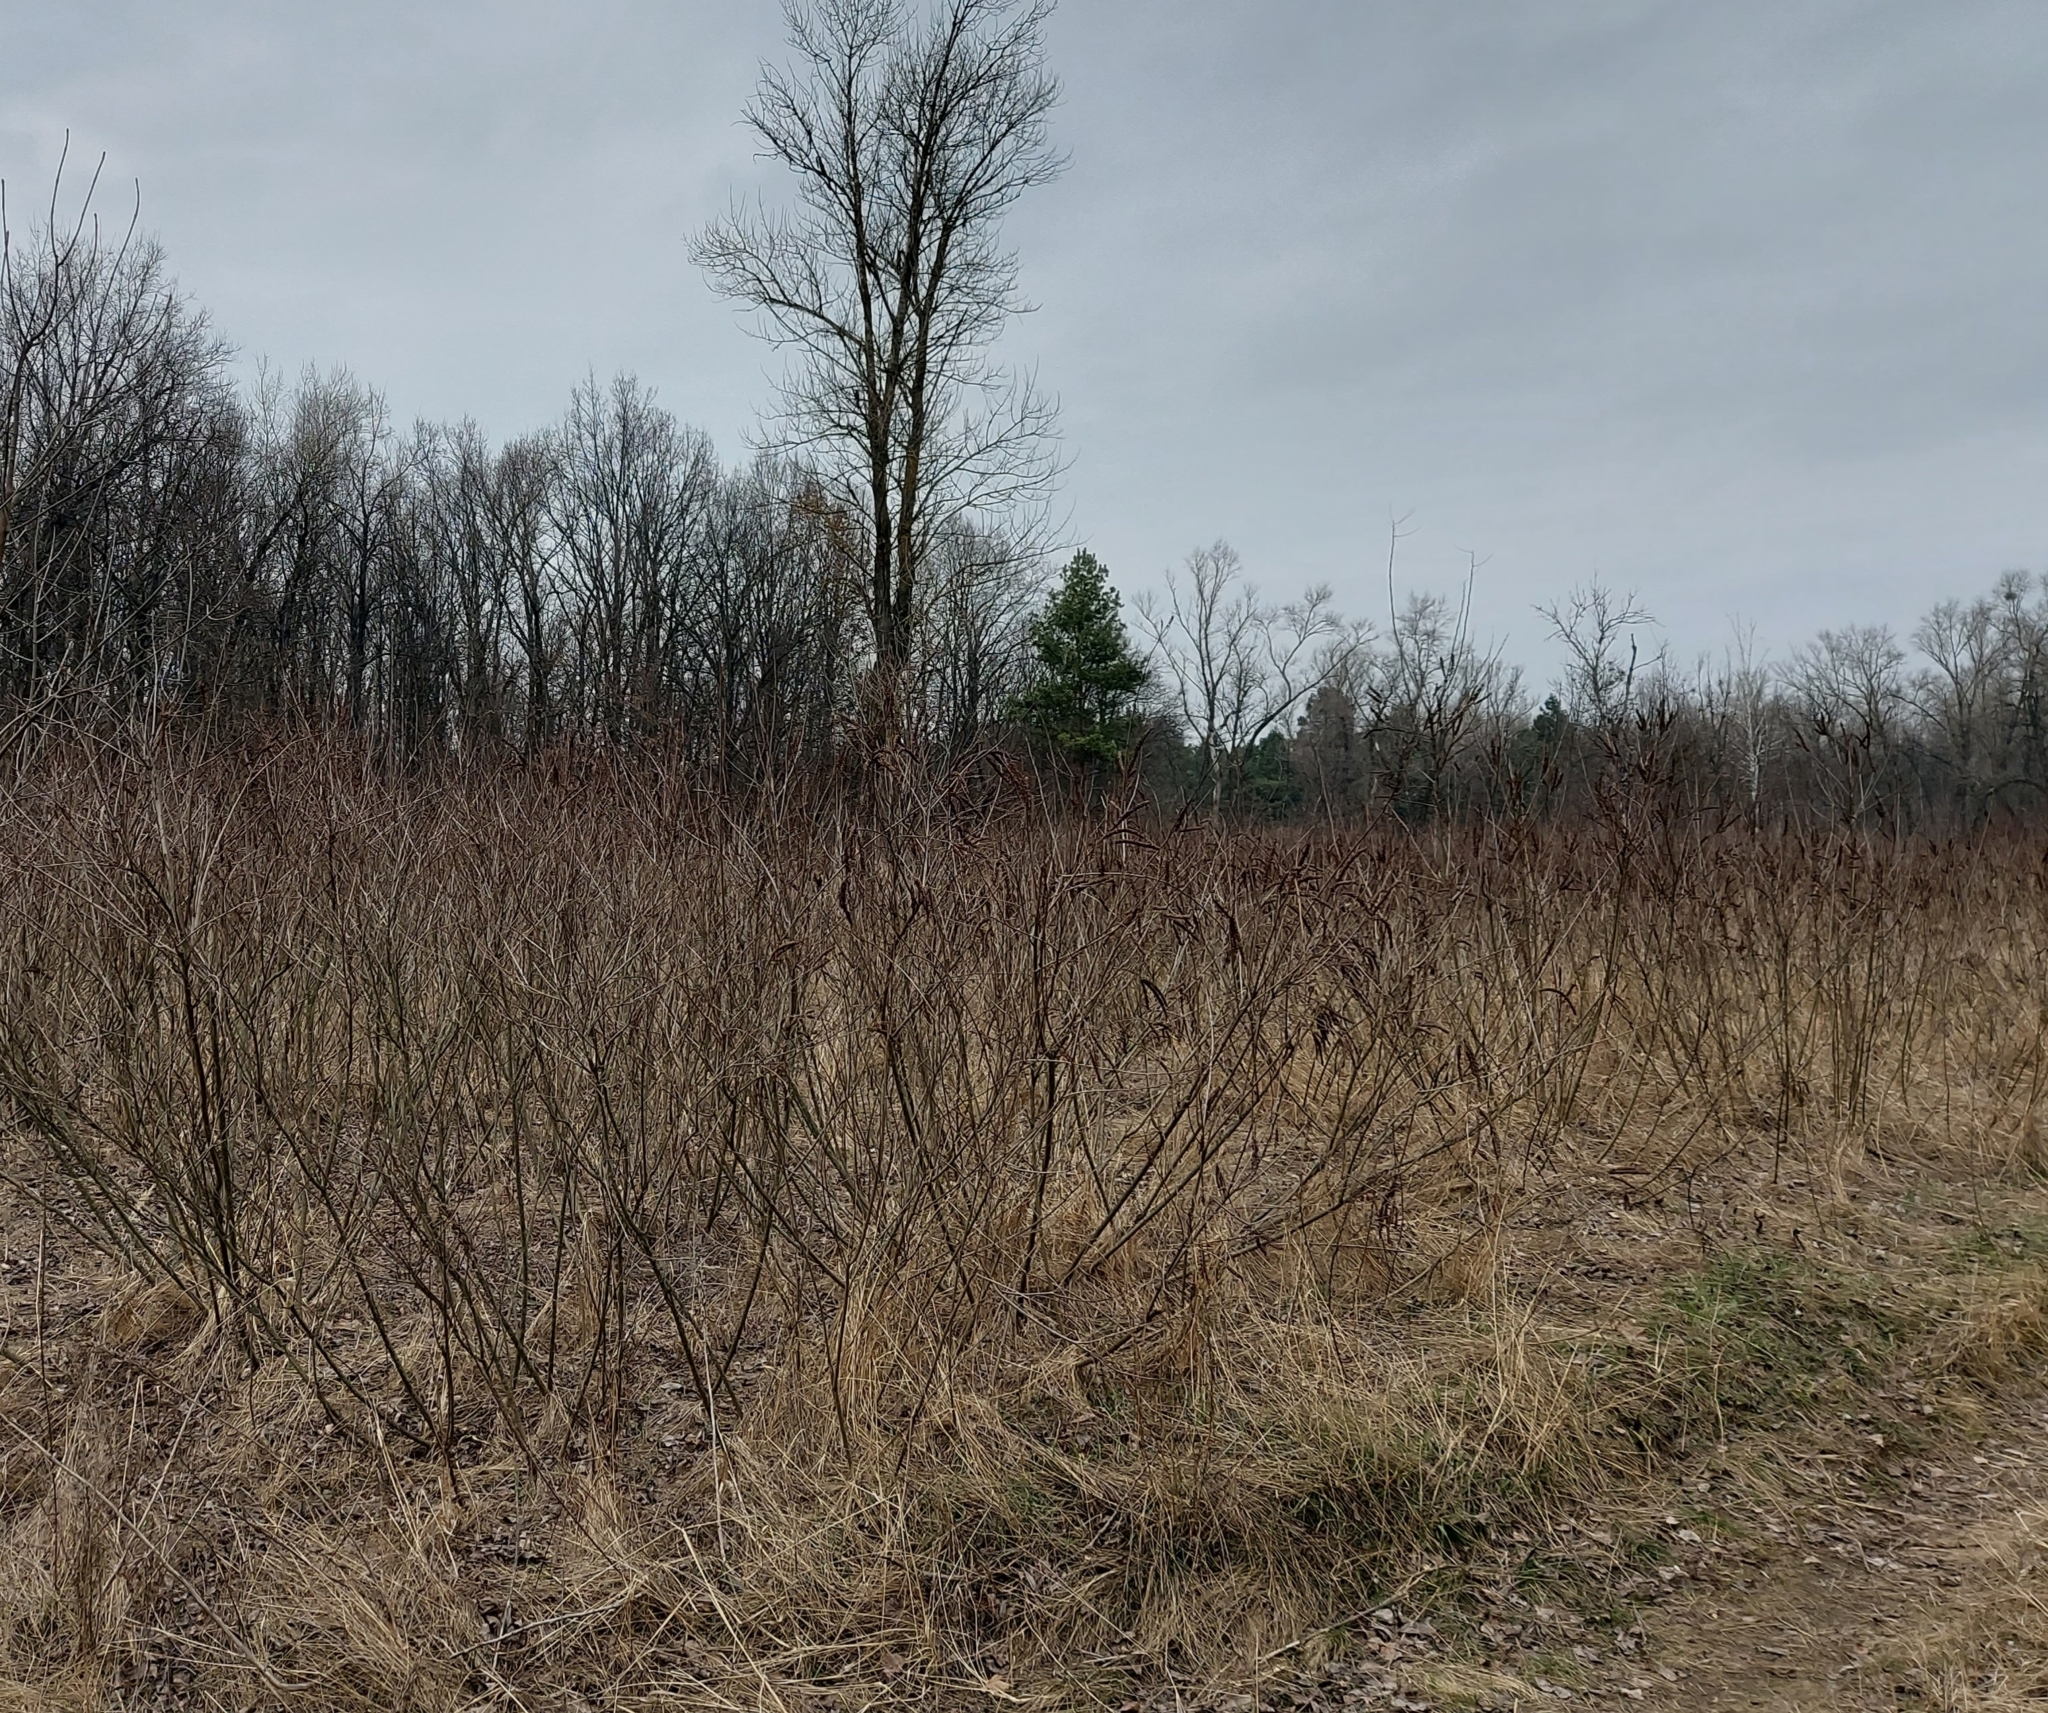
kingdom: Plantae
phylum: Tracheophyta
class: Magnoliopsida
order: Fabales
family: Fabaceae
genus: Amorpha
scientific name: Amorpha fruticosa
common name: False indigo
